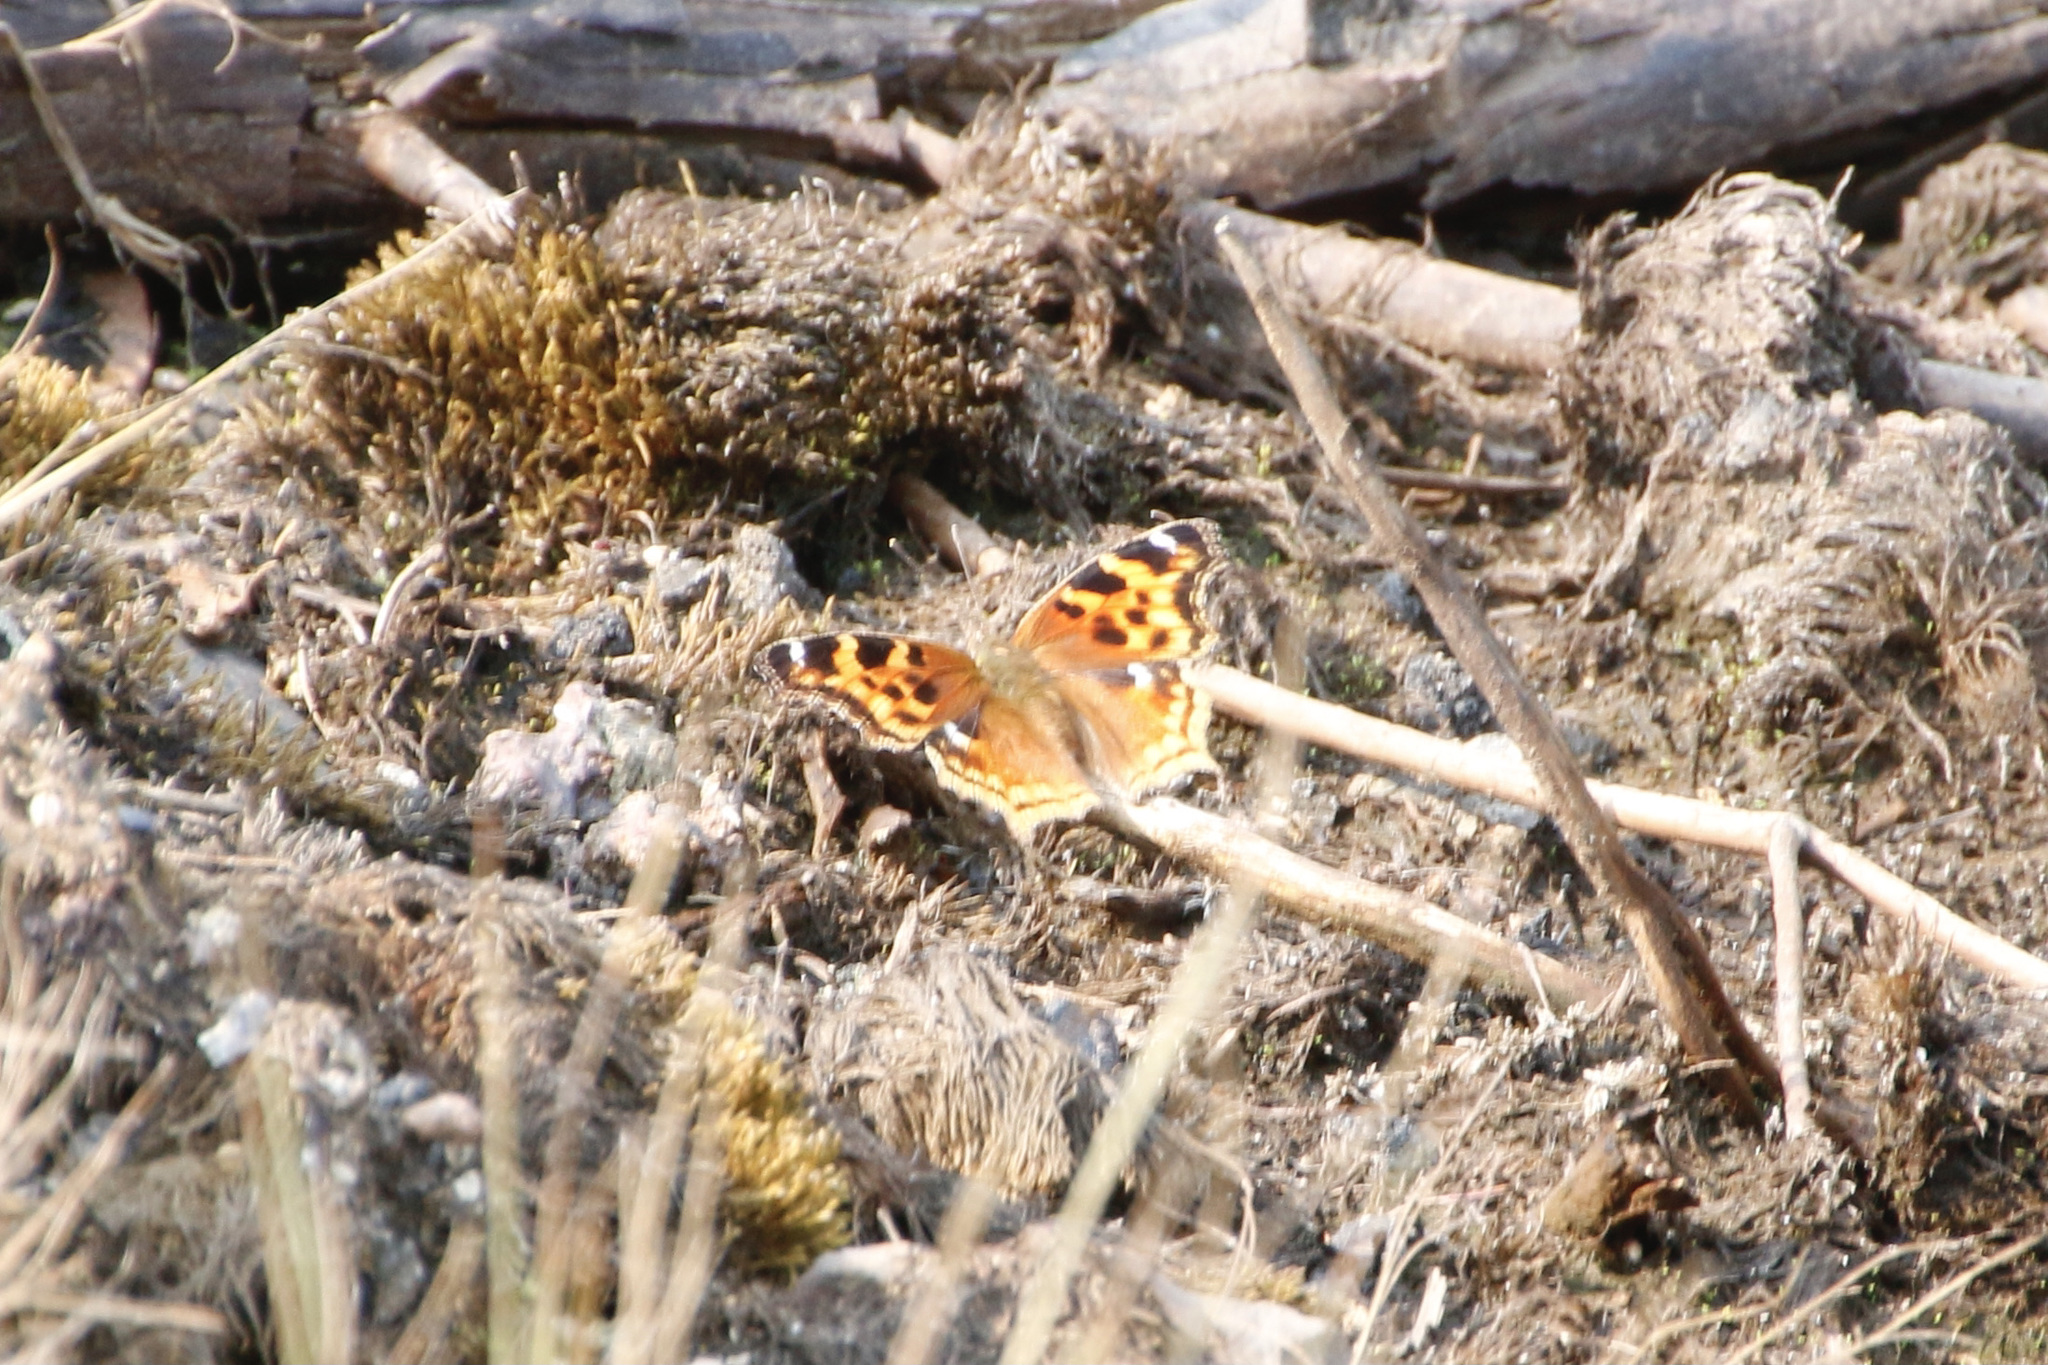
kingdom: Animalia
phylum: Arthropoda
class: Insecta
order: Lepidoptera
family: Nymphalidae
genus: Polygonia
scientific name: Polygonia vaualbum
